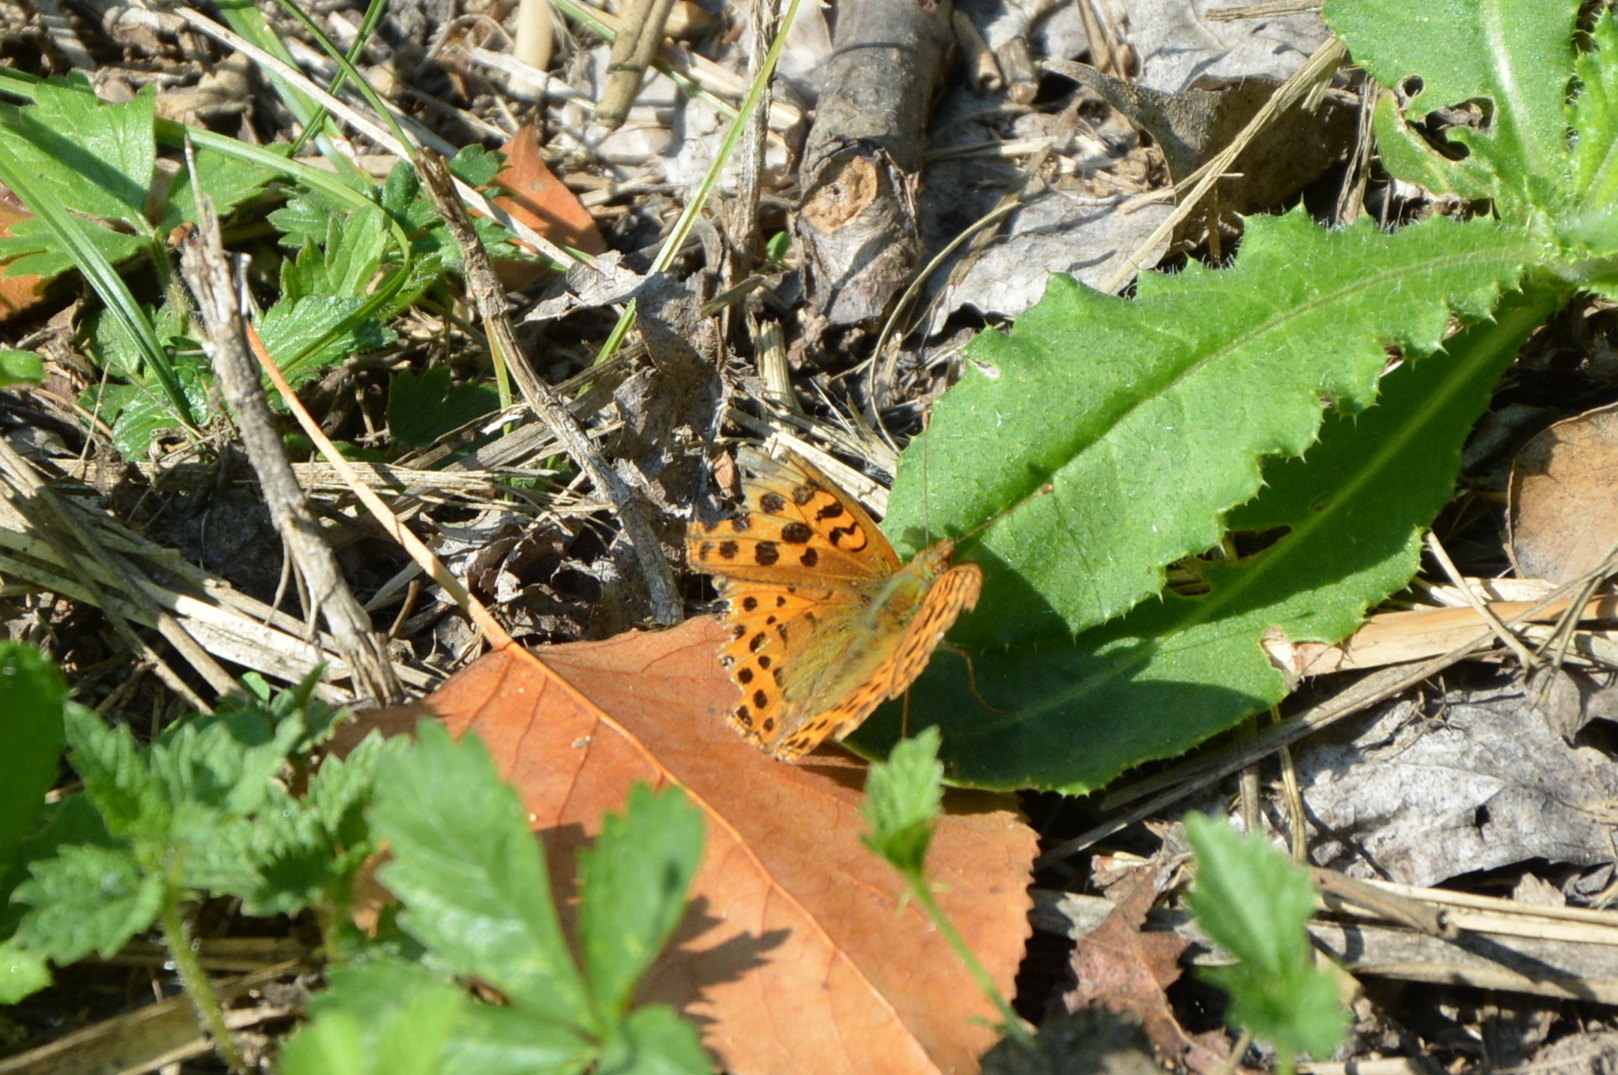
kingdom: Animalia
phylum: Arthropoda
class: Insecta
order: Lepidoptera
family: Nymphalidae
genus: Issoria
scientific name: Issoria lathonia
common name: Queen of spain fritillary
